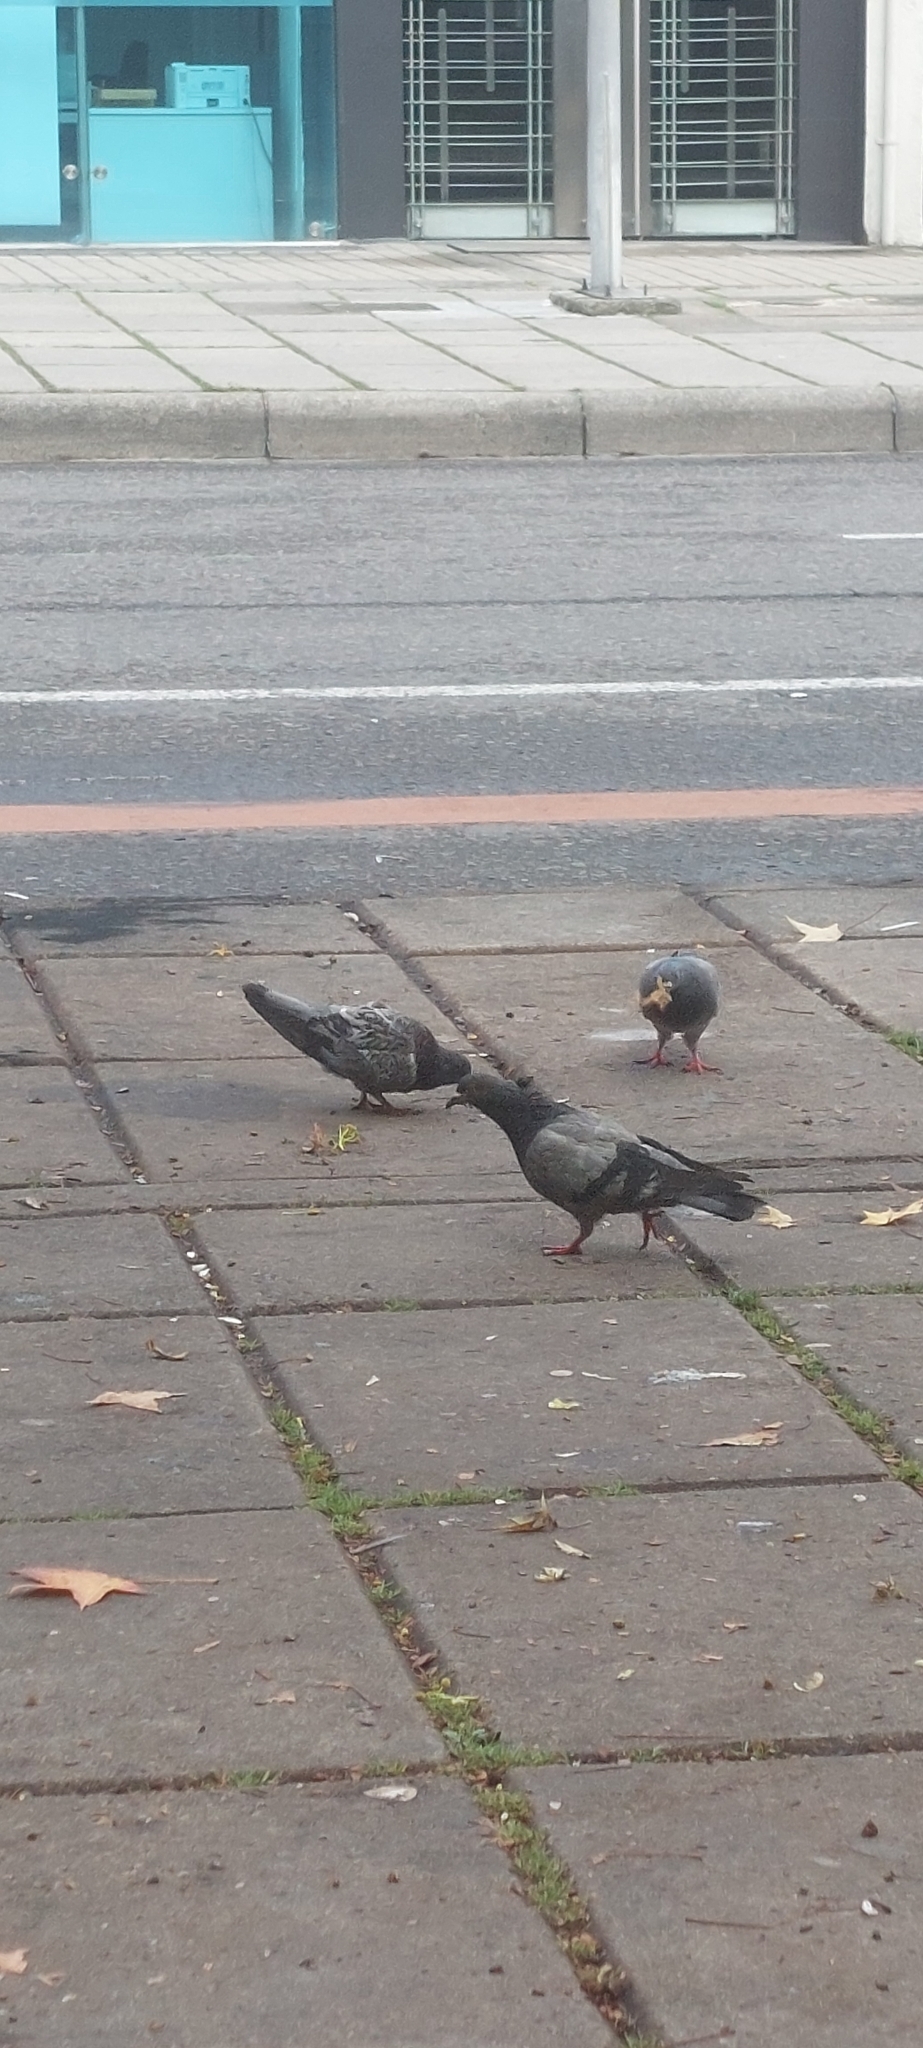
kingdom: Animalia
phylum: Chordata
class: Aves
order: Columbiformes
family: Columbidae
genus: Columba
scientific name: Columba livia
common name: Rock pigeon
